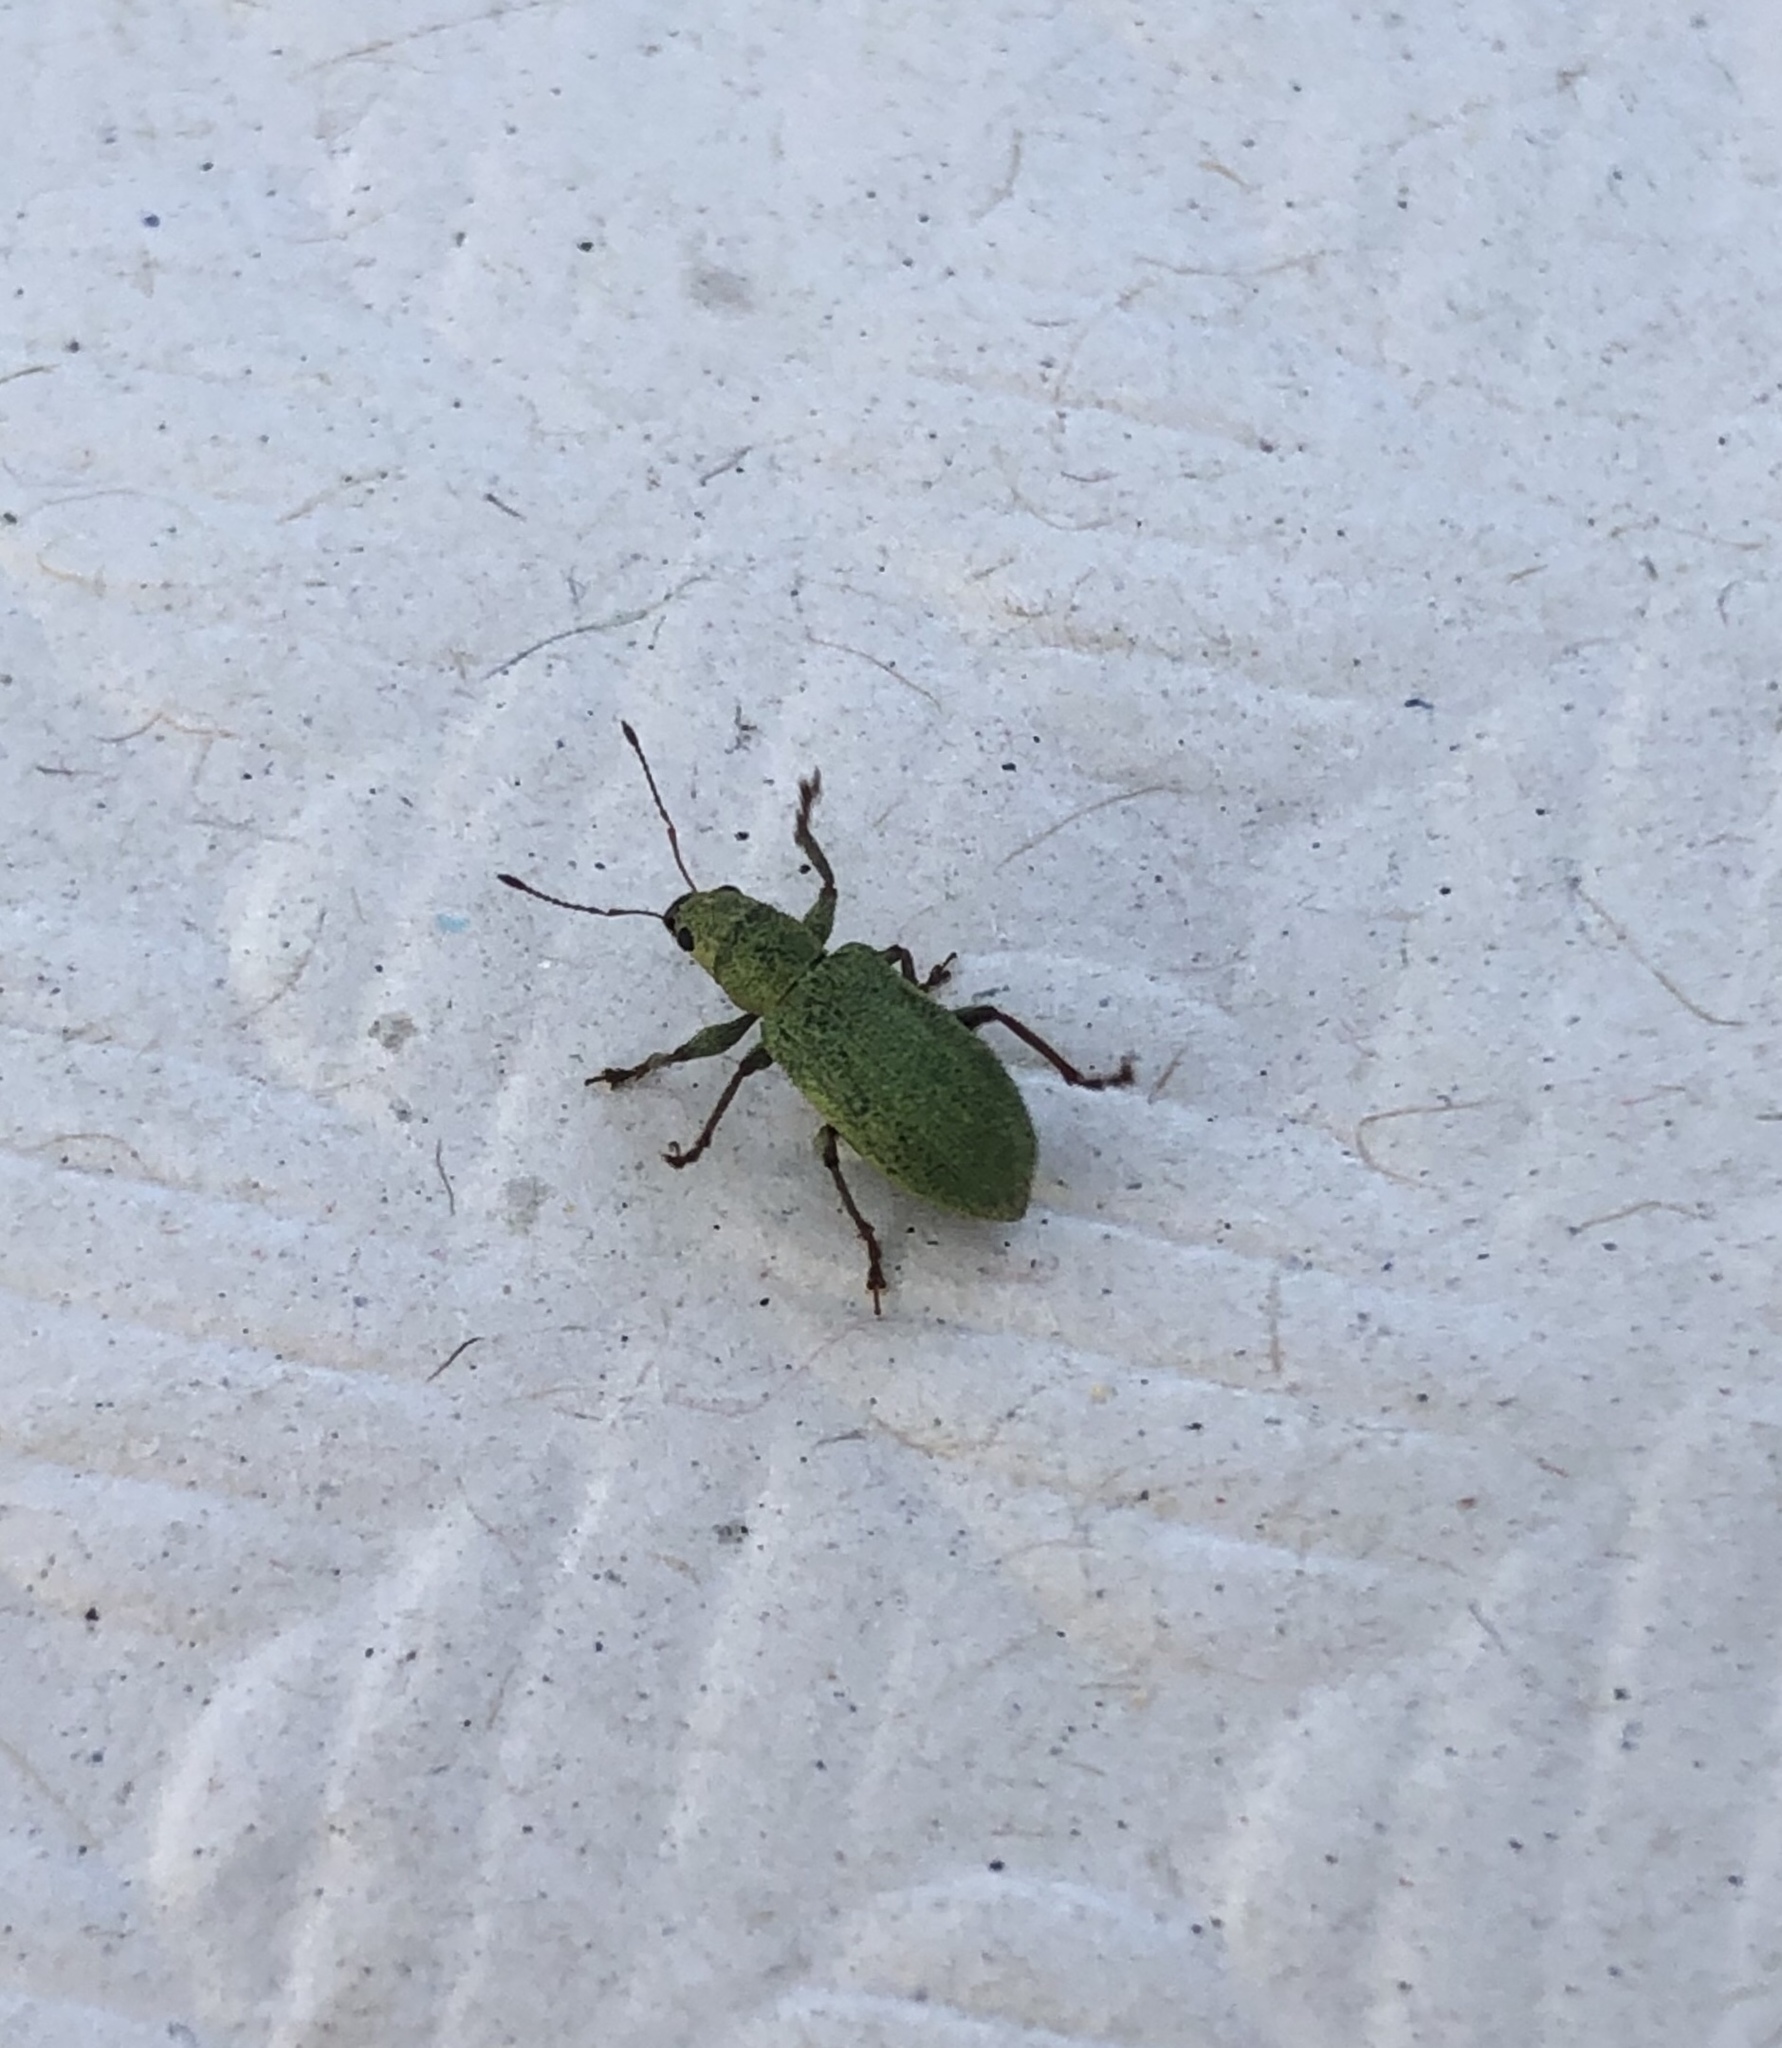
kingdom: Animalia
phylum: Arthropoda
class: Insecta
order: Coleoptera
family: Curculionidae
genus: Pachyrhinus
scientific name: Pachyrhinus lethierryi
